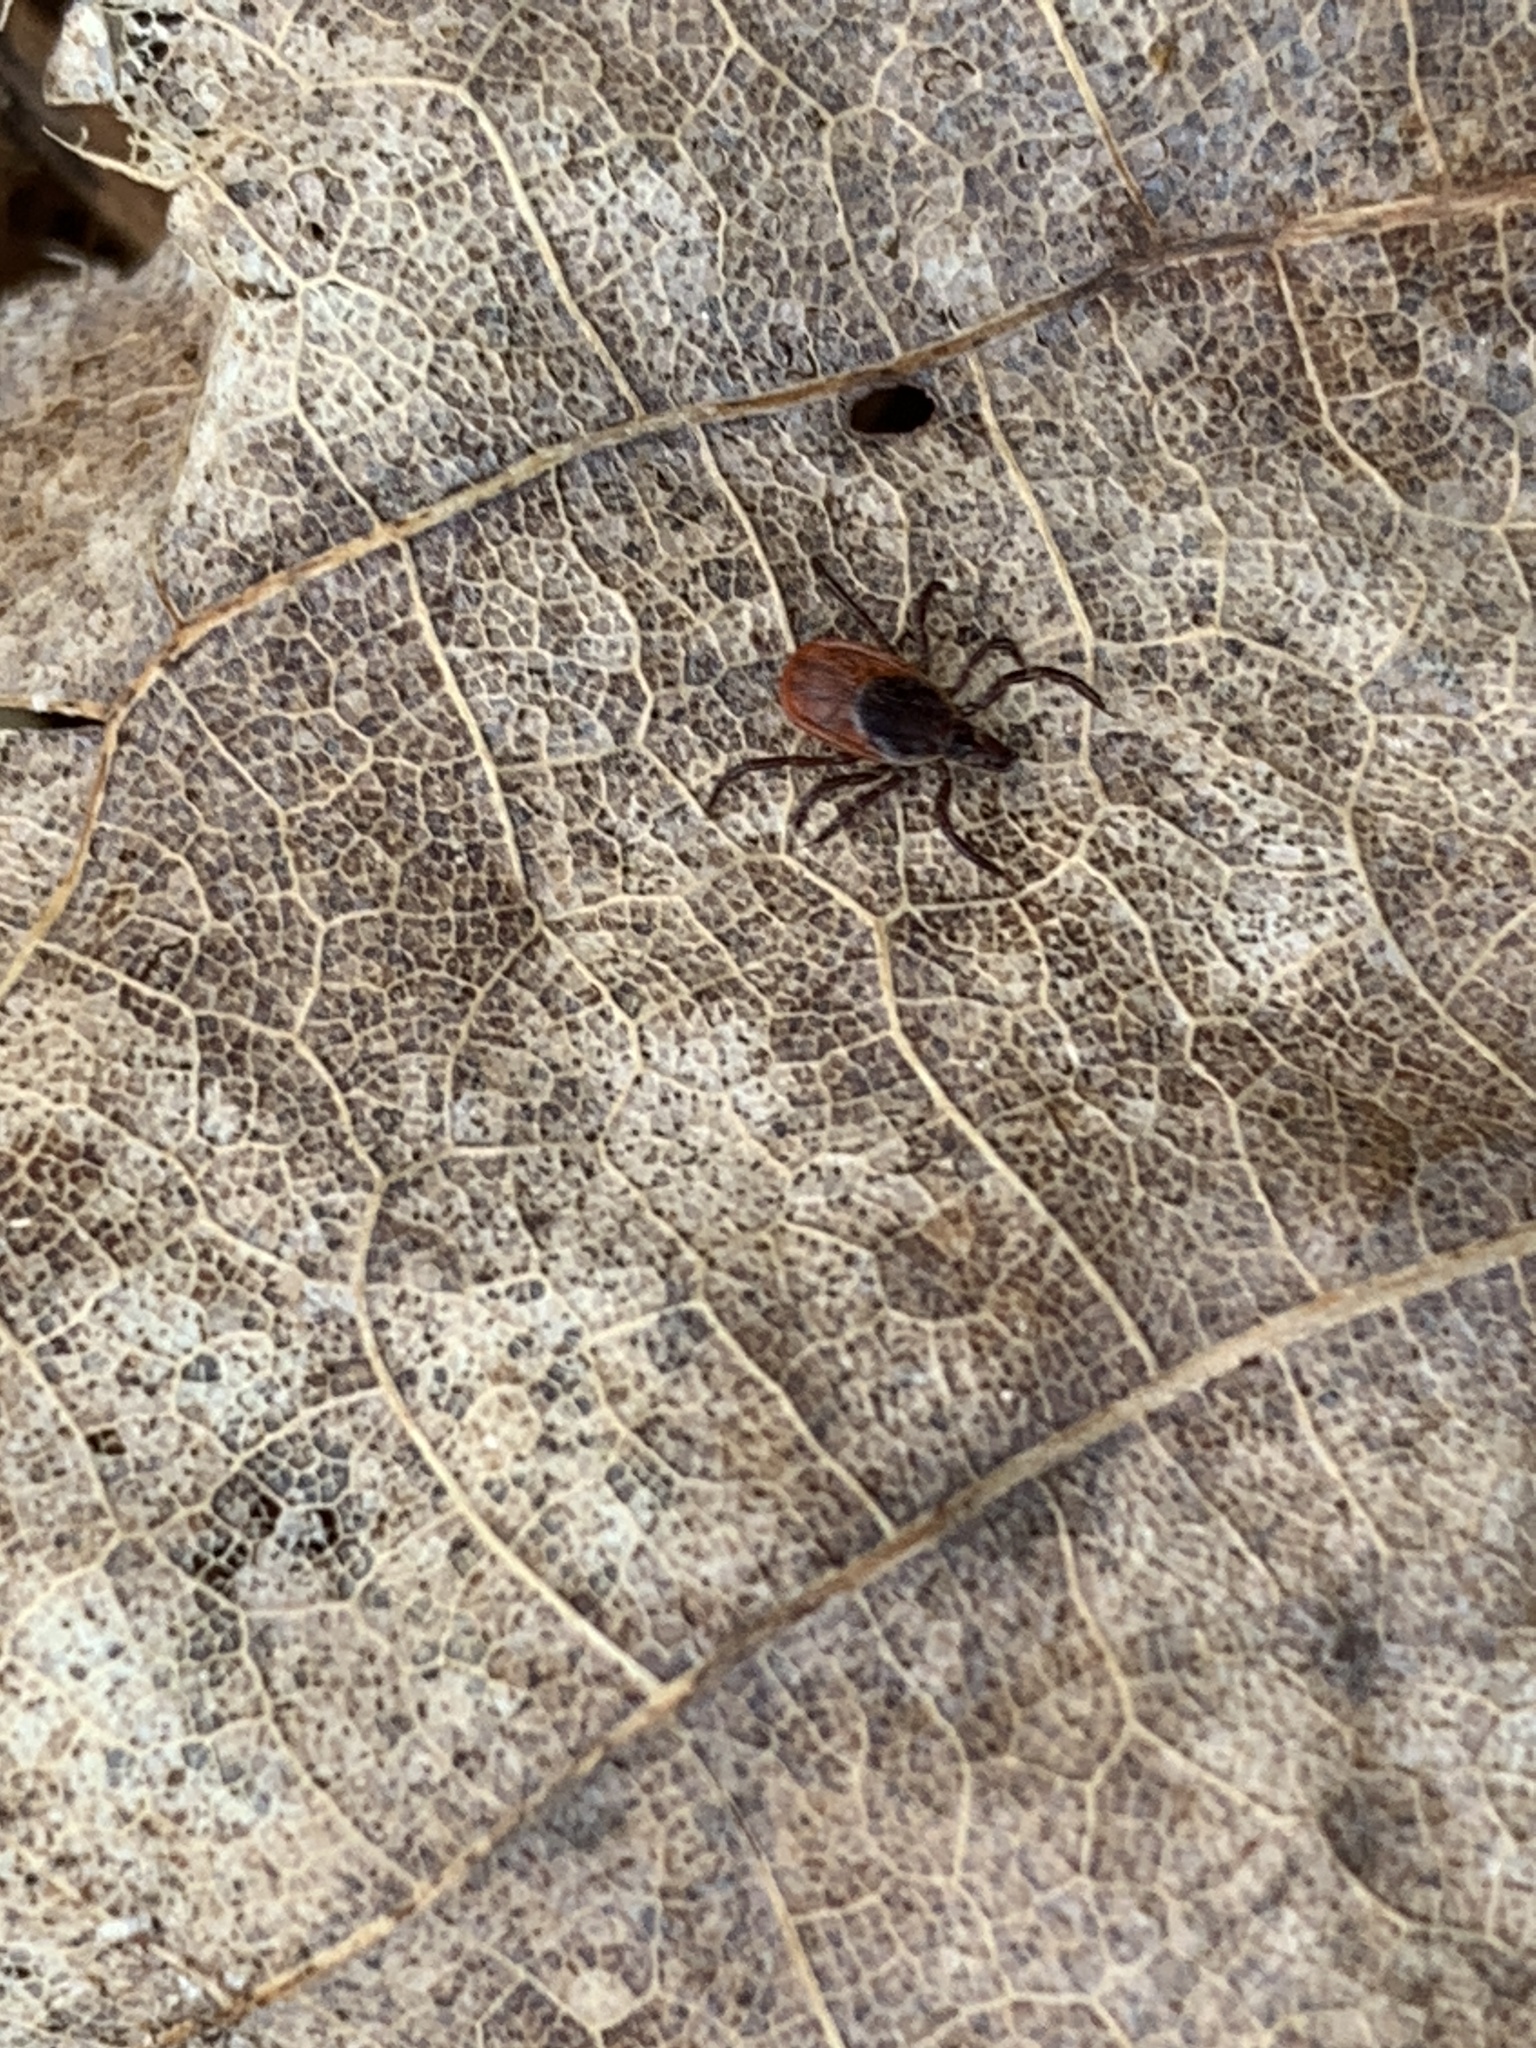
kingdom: Animalia
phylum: Arthropoda
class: Arachnida
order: Ixodida
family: Ixodidae
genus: Ixodes
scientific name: Ixodes scapularis
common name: Black legged tick
